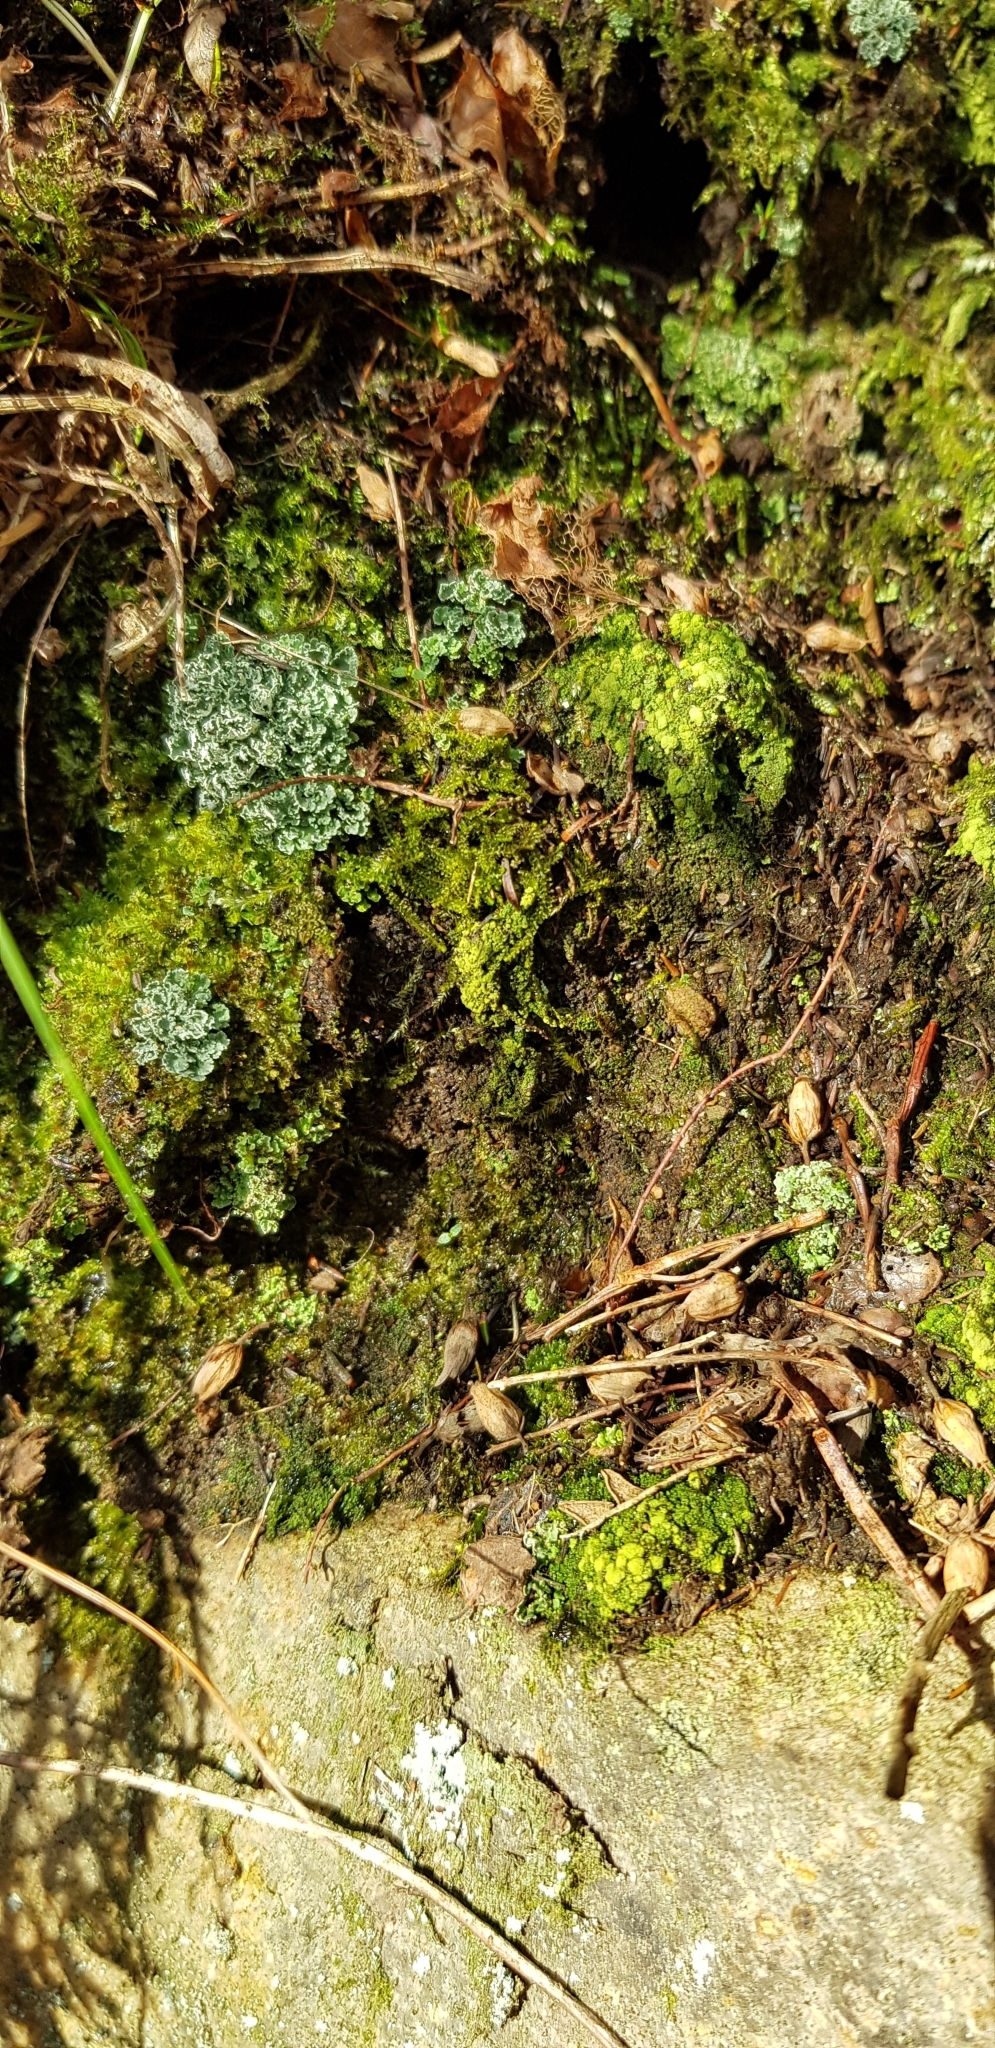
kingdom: Plantae
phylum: Marchantiophyta
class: Jungermanniopsida
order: Jungermanniales
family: Anastrophyllaceae
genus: Neoorthocaulis
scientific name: Neoorthocaulis floerkei
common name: Floerke's barbilophozia
